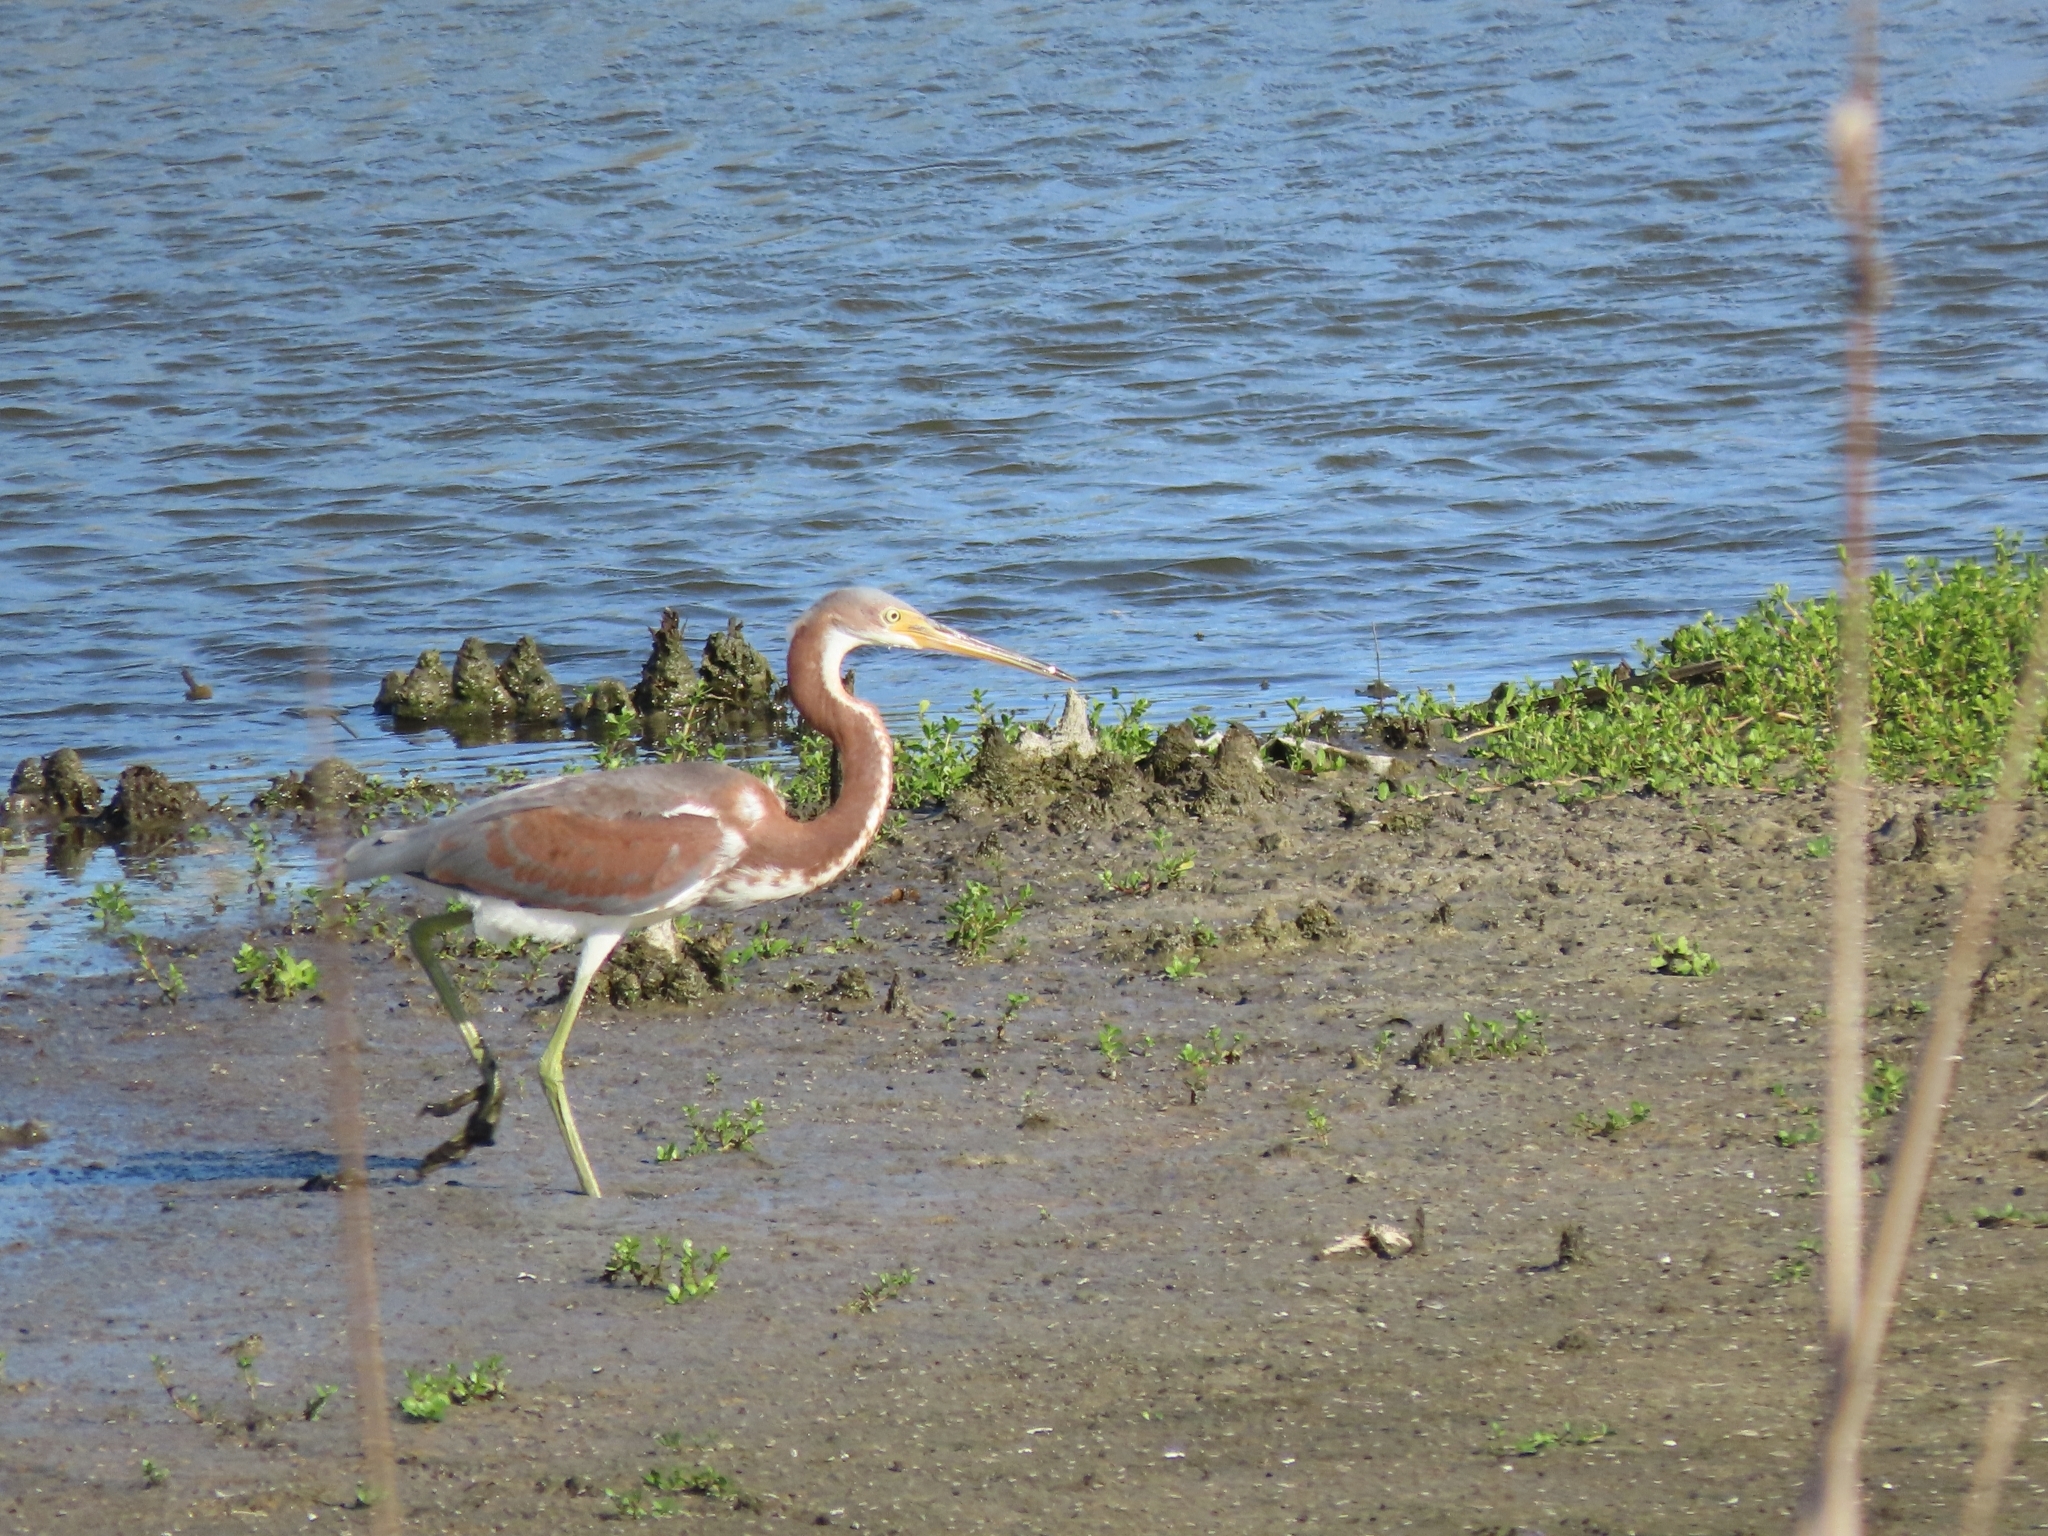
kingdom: Animalia
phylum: Chordata
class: Aves
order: Pelecaniformes
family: Ardeidae
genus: Egretta
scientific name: Egretta tricolor
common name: Tricolored heron
